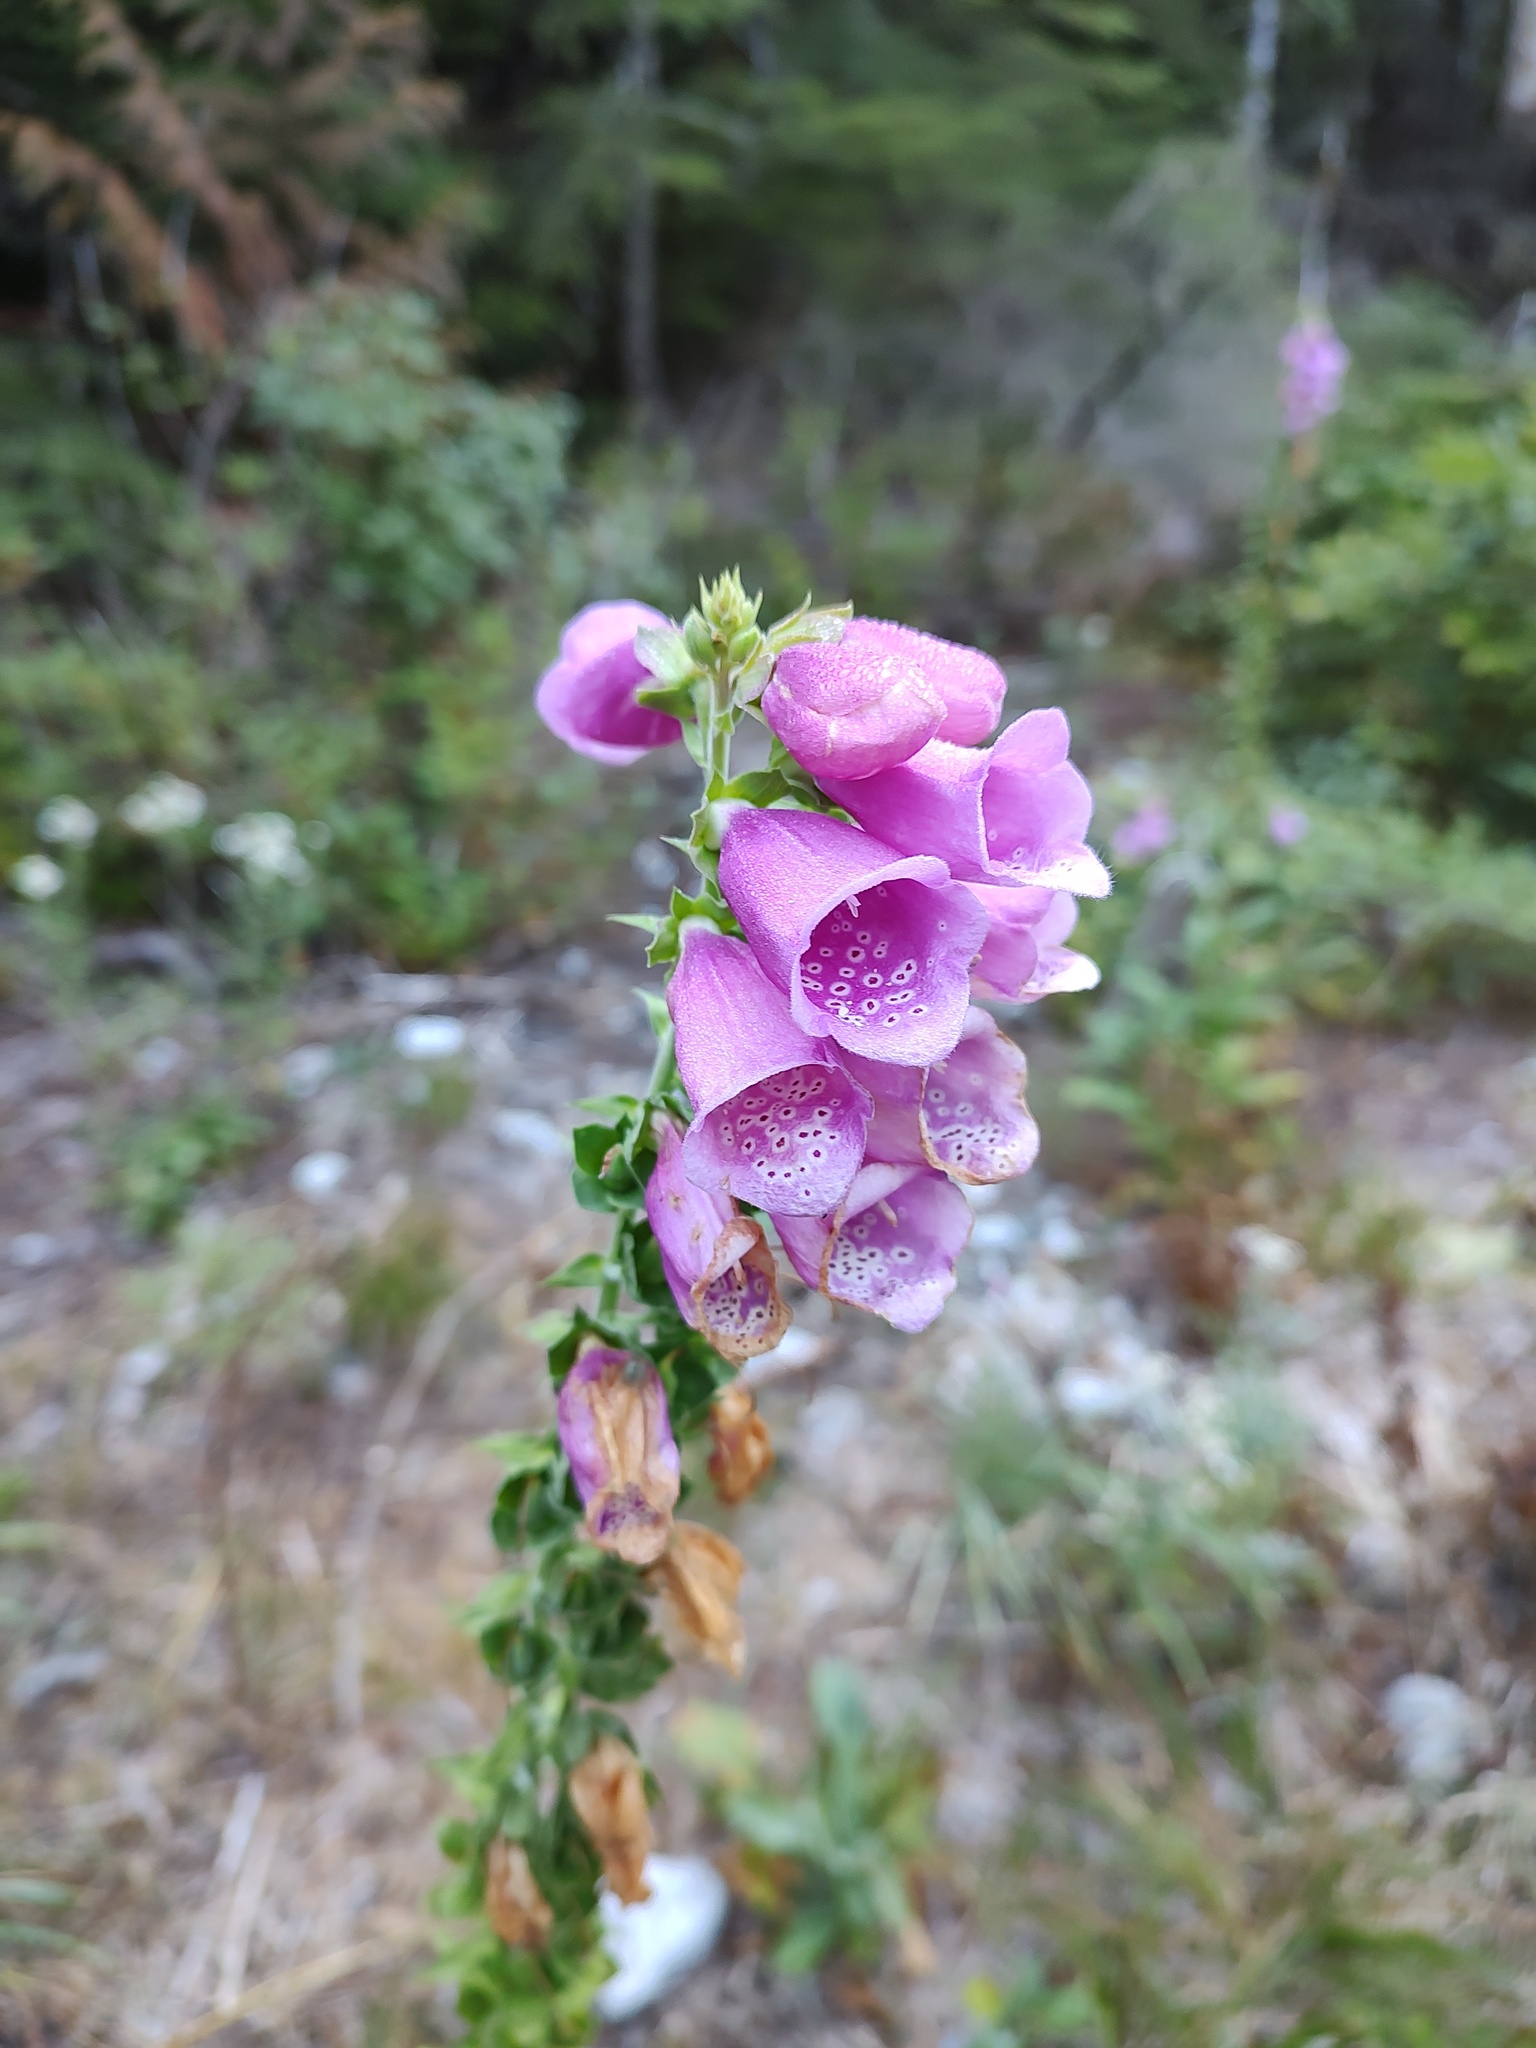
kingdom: Plantae
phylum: Tracheophyta
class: Magnoliopsida
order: Lamiales
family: Plantaginaceae
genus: Digitalis
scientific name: Digitalis purpurea
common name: Foxglove
